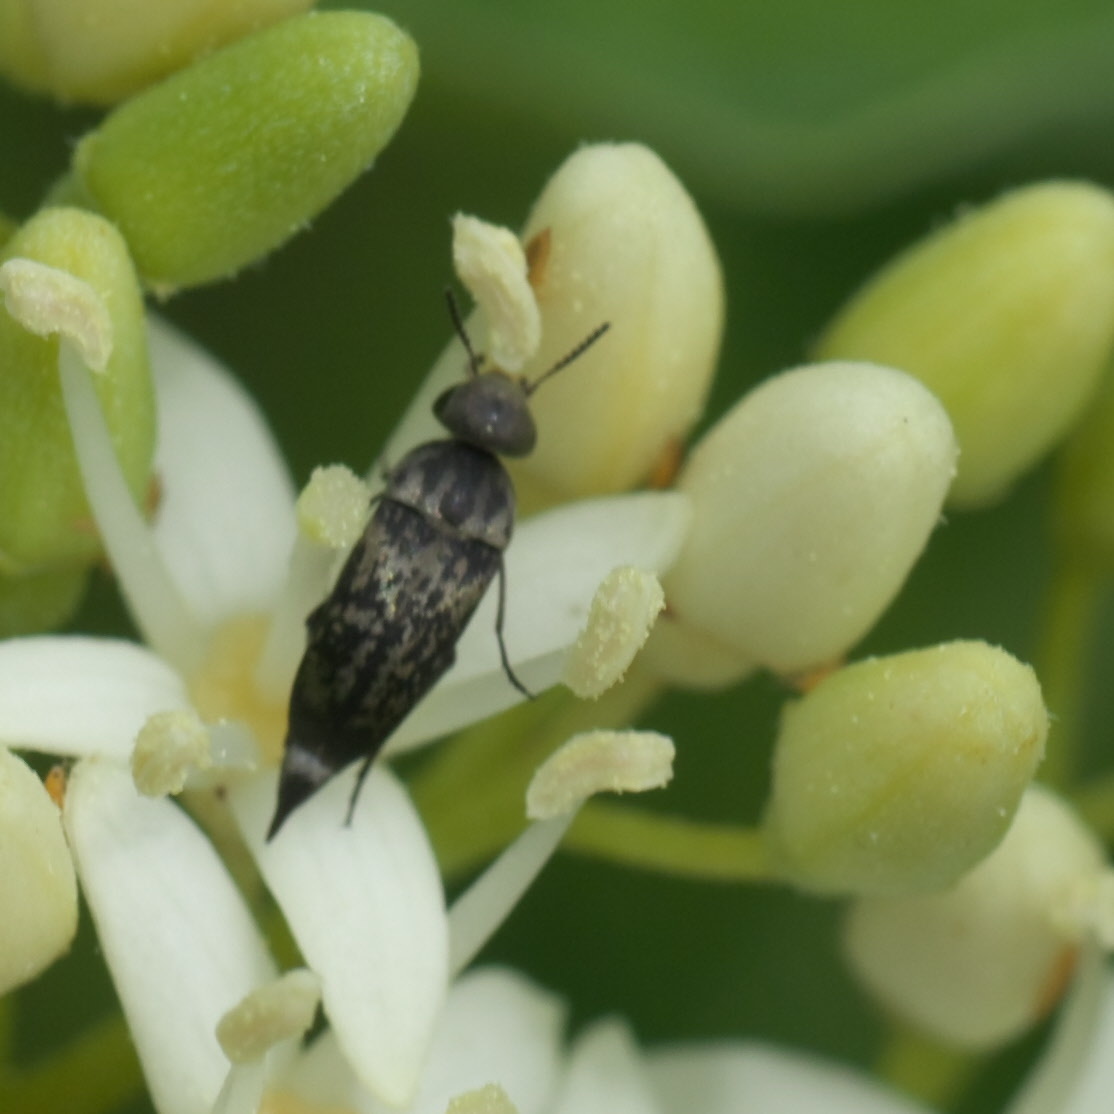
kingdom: Animalia
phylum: Arthropoda
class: Insecta
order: Coleoptera
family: Mordellidae
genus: Mordella
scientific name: Mordella marginata
